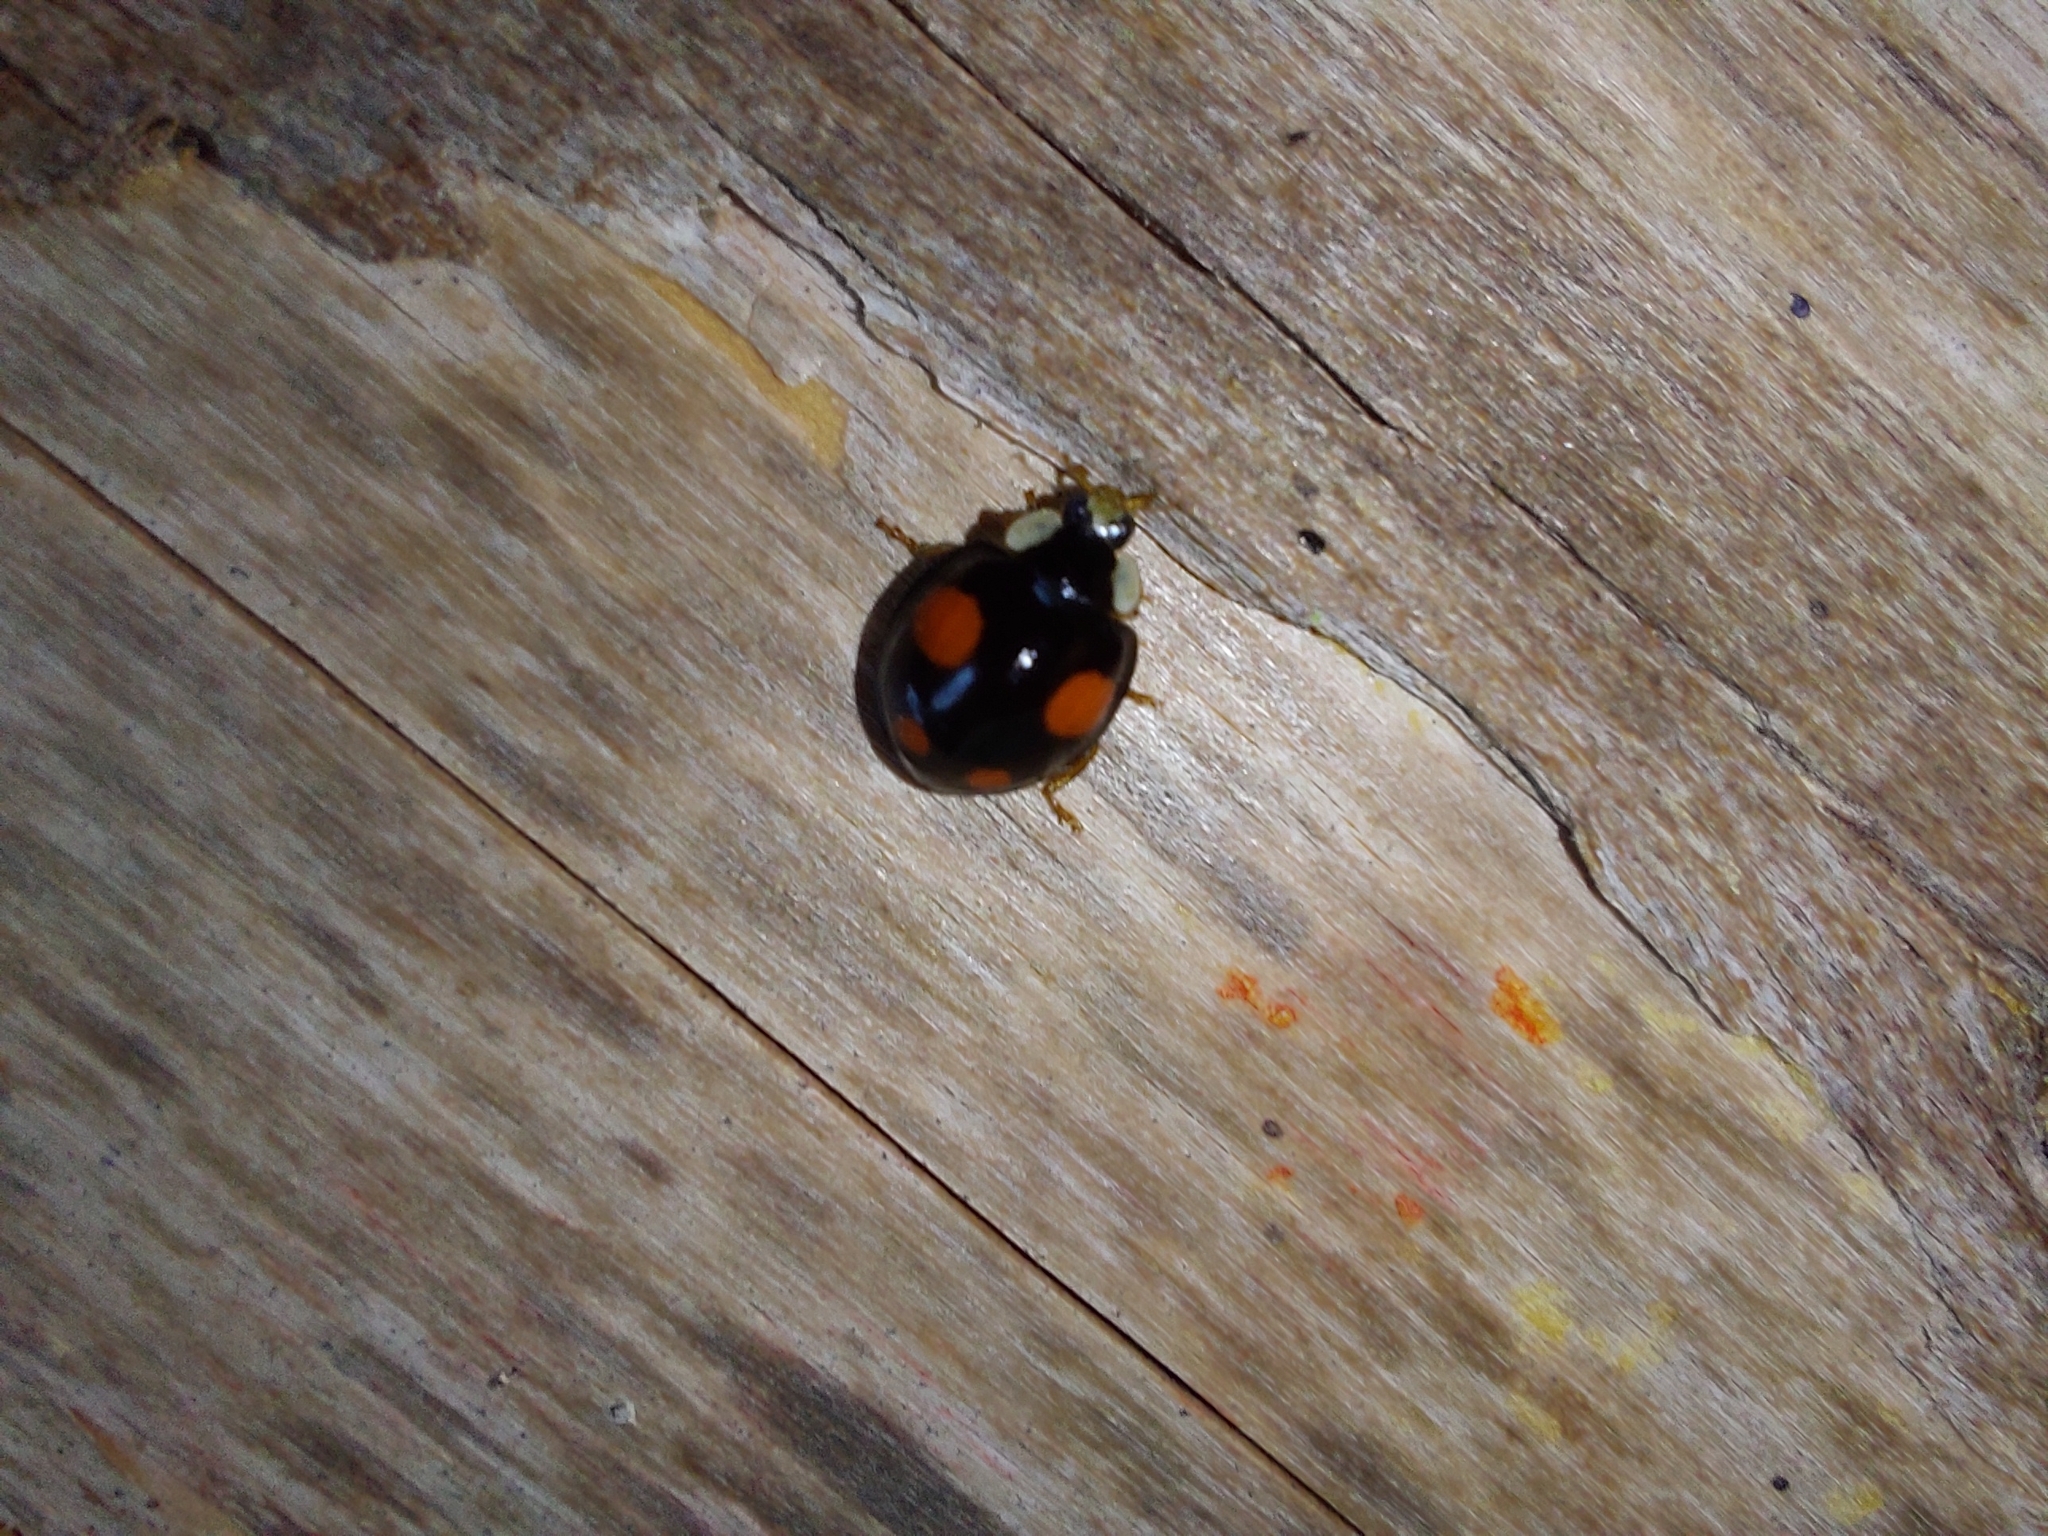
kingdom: Animalia
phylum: Arthropoda
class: Insecta
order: Coleoptera
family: Coccinellidae
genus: Harmonia
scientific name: Harmonia axyridis
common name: Harlequin ladybird
